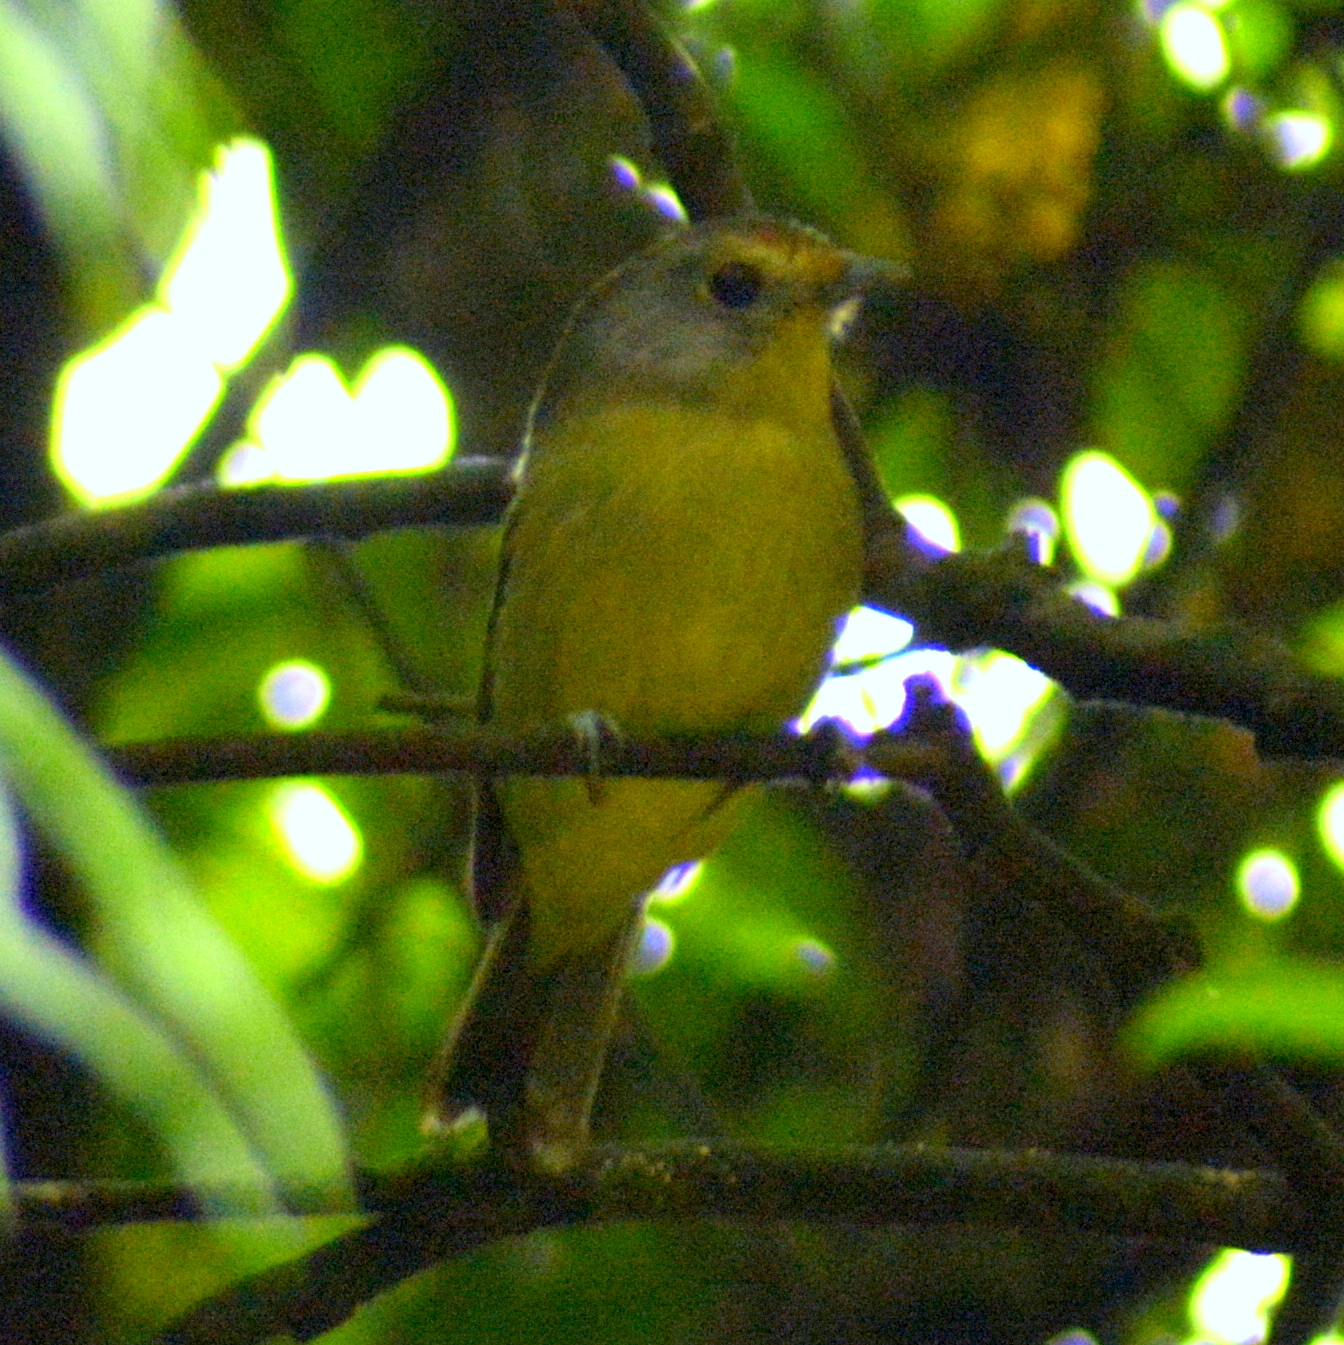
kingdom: Animalia
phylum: Chordata
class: Aves
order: Passeriformes
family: Cotingidae
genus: Piprites
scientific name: Piprites chloris
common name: Wing-barred piprites
